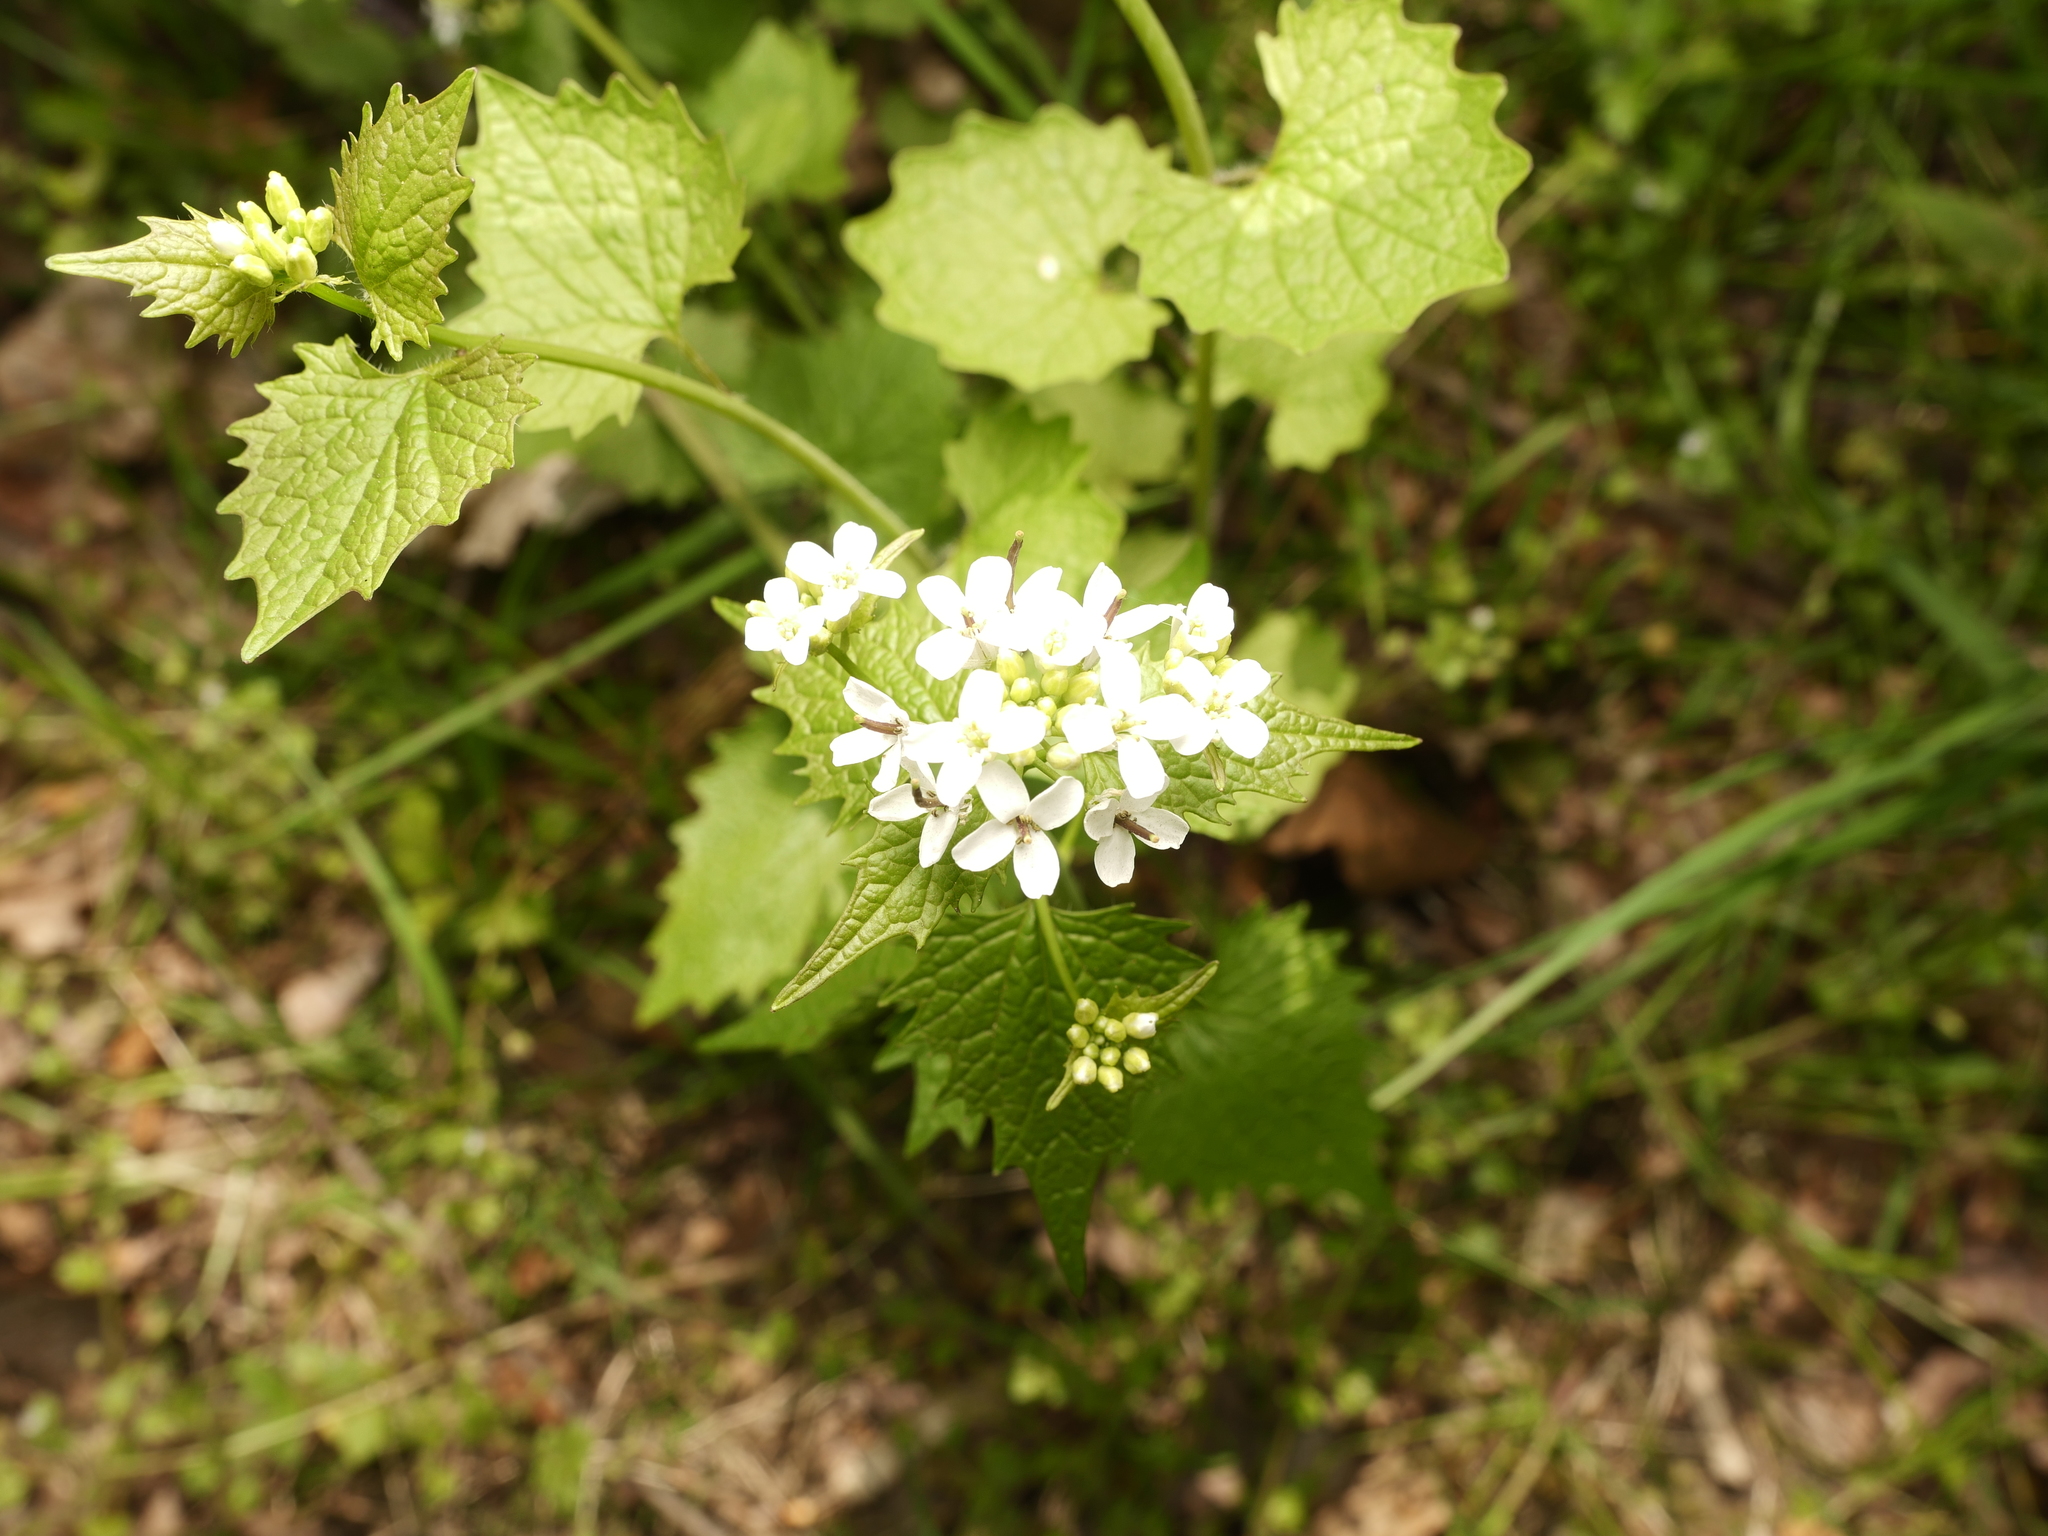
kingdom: Plantae
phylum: Tracheophyta
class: Magnoliopsida
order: Brassicales
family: Brassicaceae
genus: Alliaria
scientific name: Alliaria petiolata
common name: Garlic mustard
